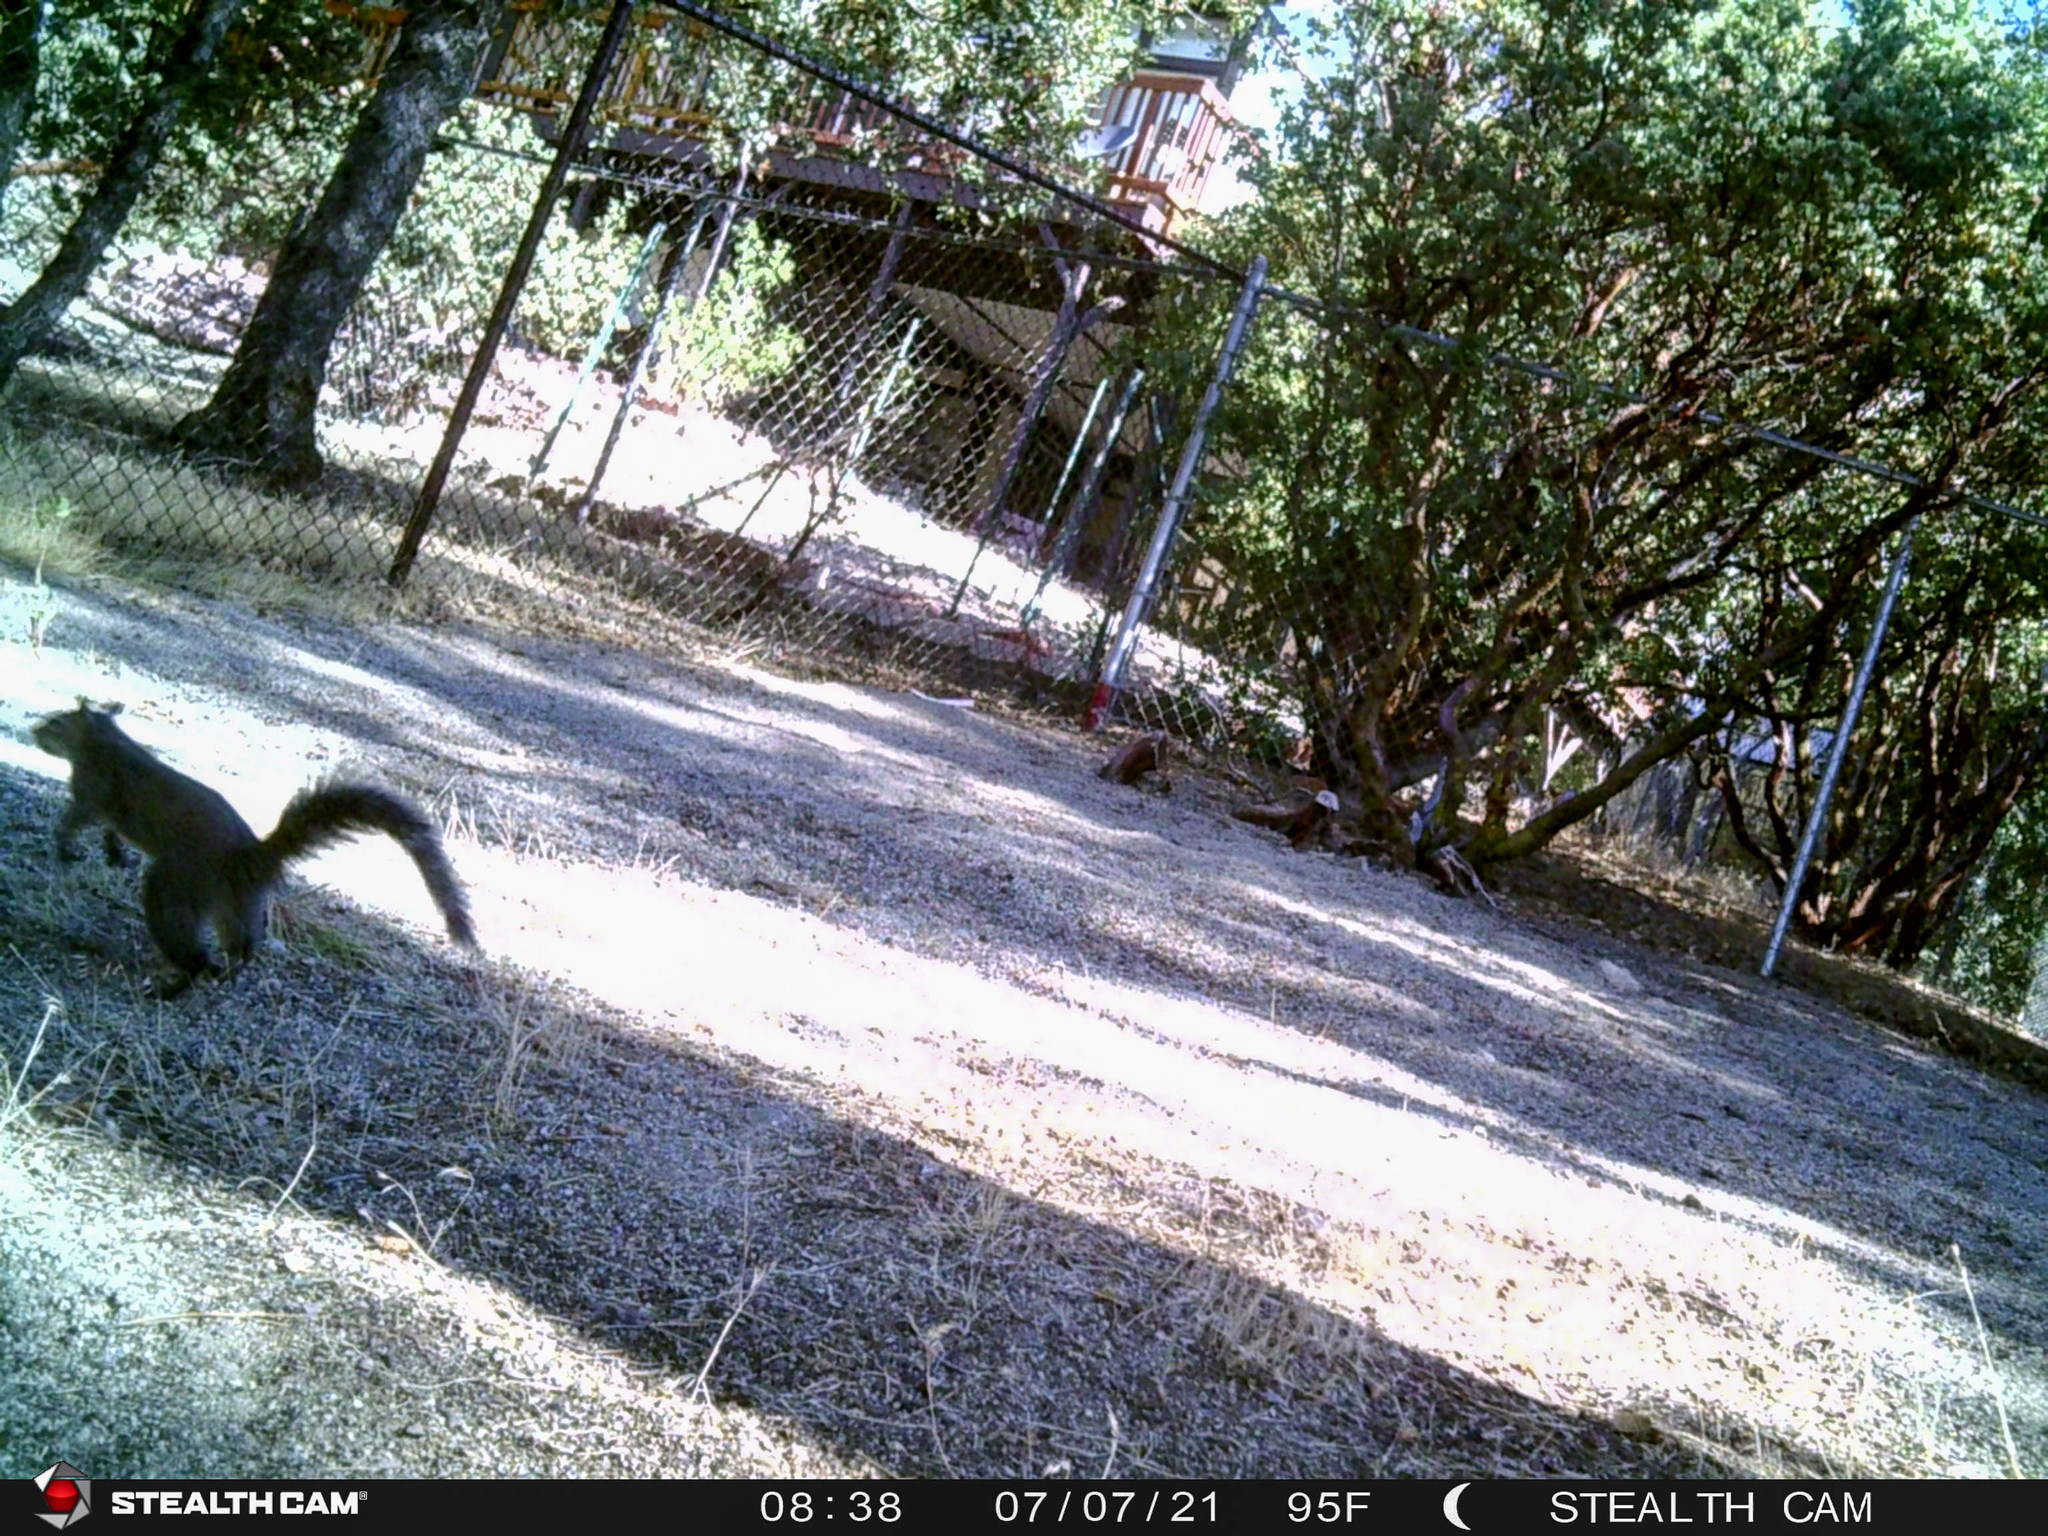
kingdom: Animalia
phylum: Chordata
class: Mammalia
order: Rodentia
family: Sciuridae
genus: Sciurus
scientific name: Sciurus griseus
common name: Western gray squirrel
